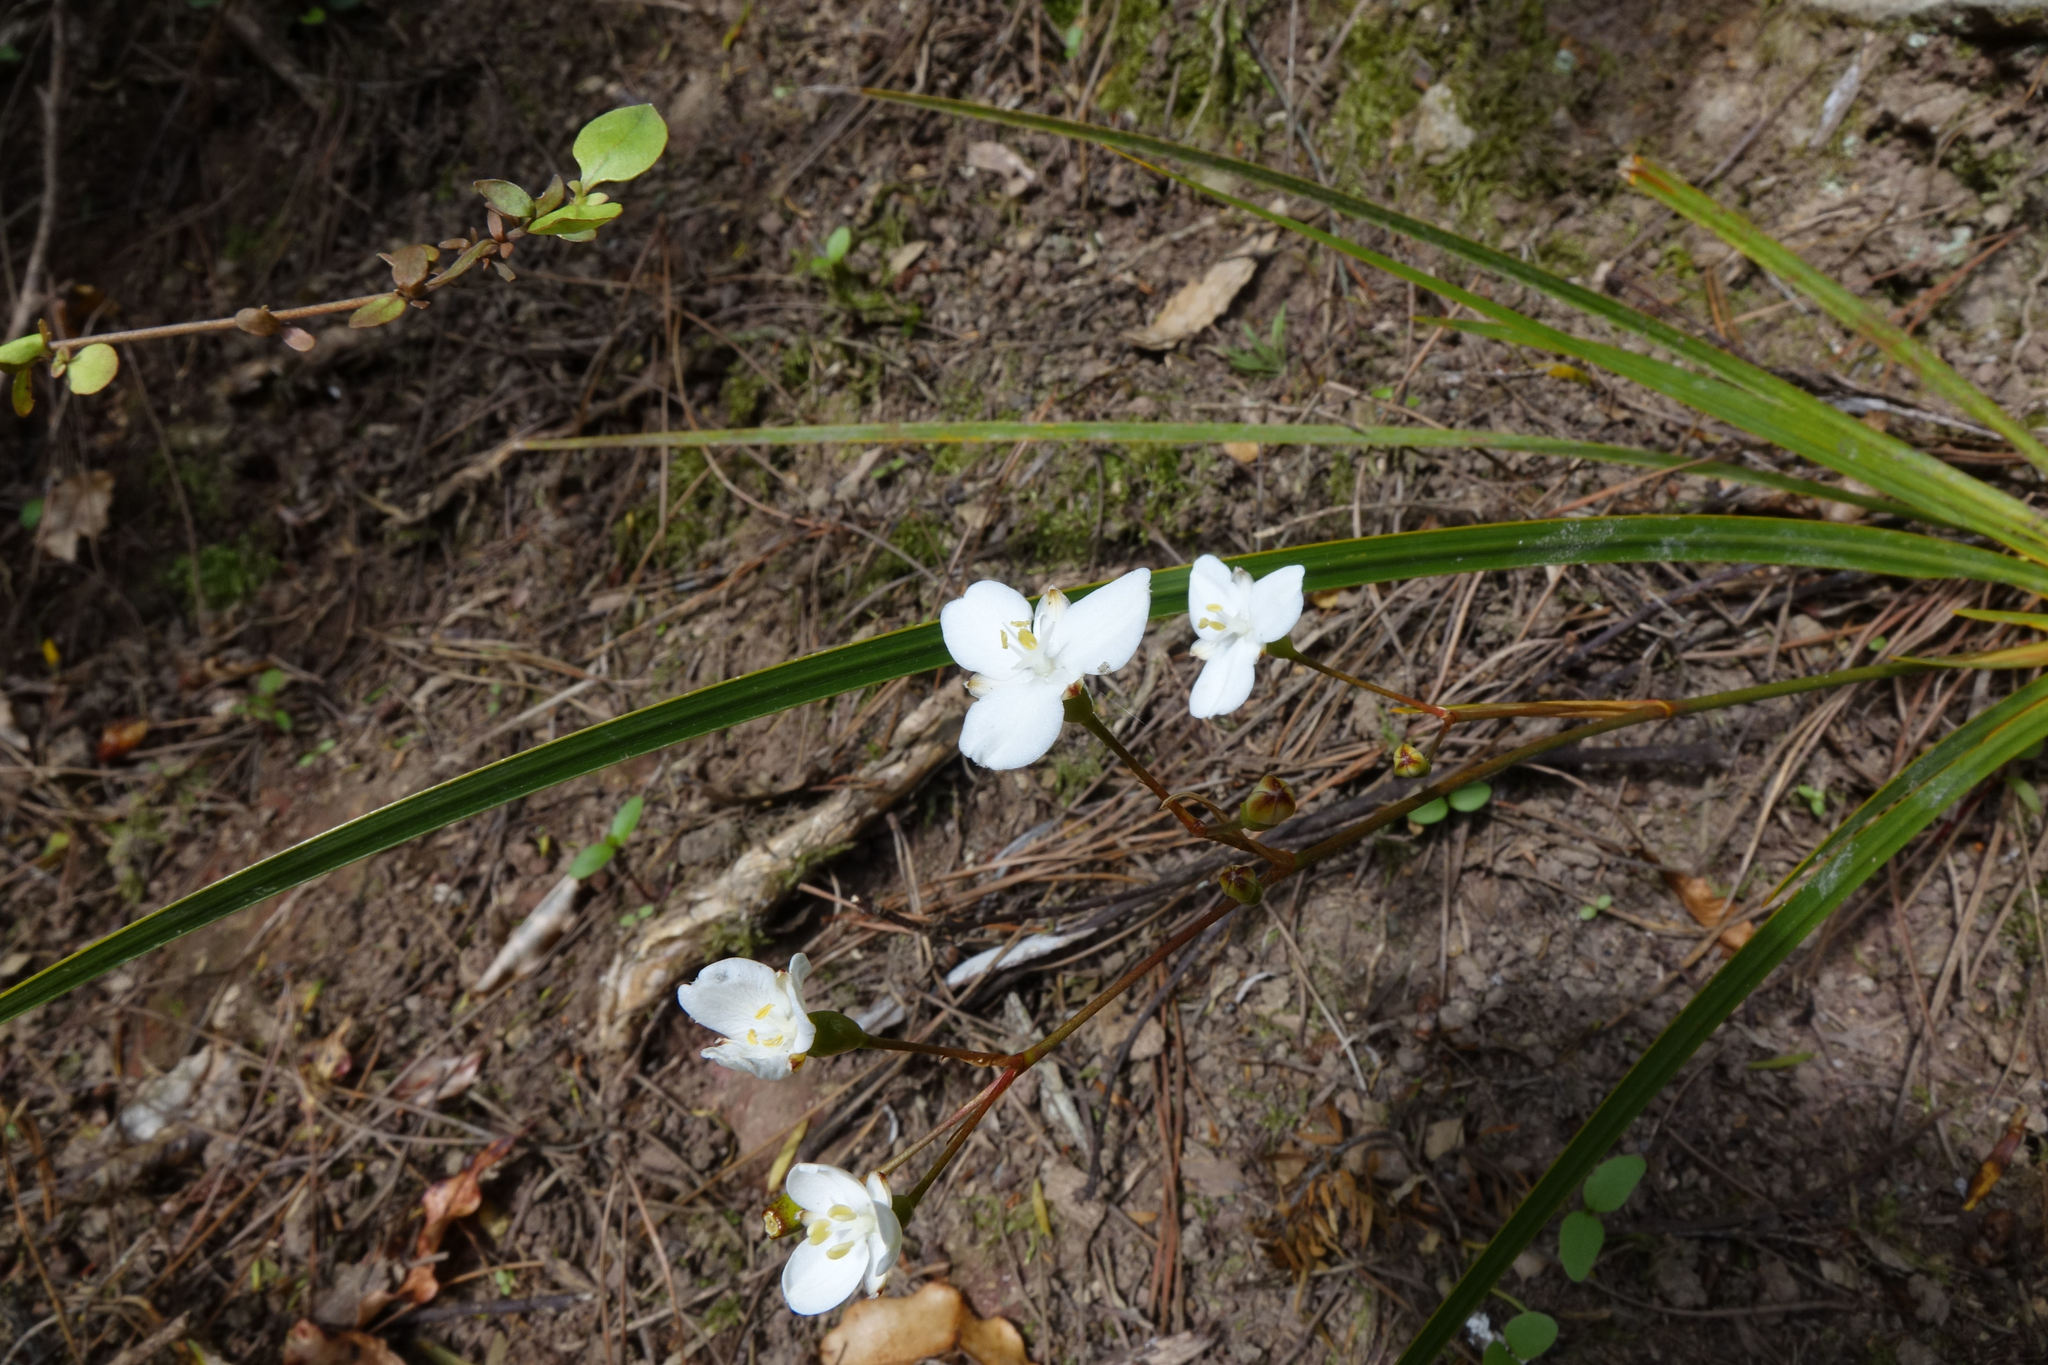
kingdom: Plantae
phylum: Tracheophyta
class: Liliopsida
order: Asparagales
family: Iridaceae
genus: Libertia
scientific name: Libertia ixioides
